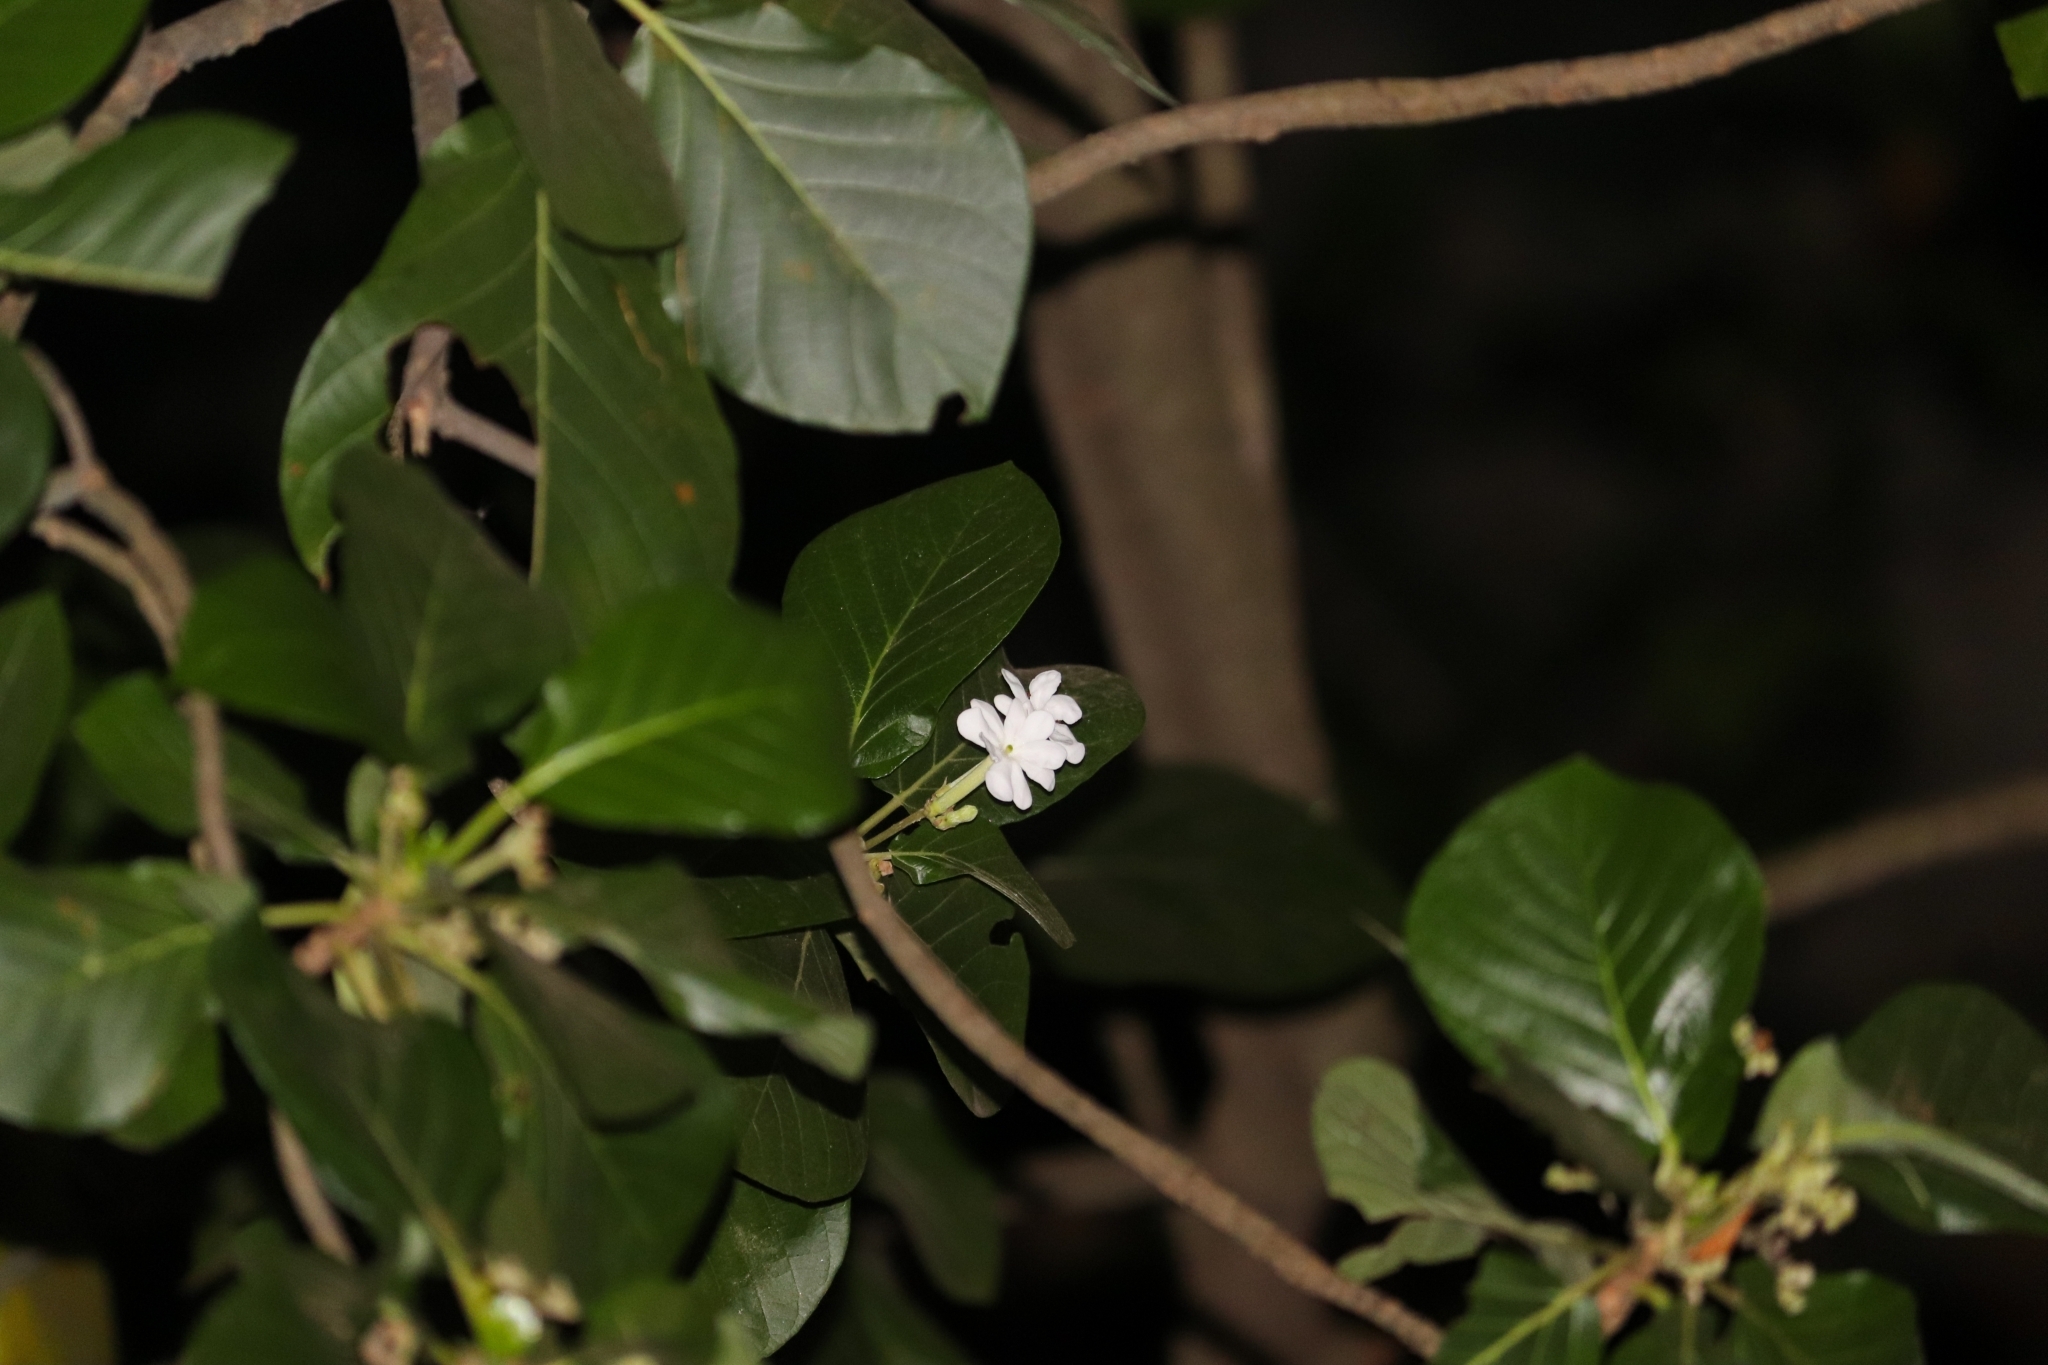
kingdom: Plantae
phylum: Tracheophyta
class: Magnoliopsida
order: Gentianales
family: Rubiaceae
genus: Guettarda
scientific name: Guettarda speciosa
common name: Sea randa
